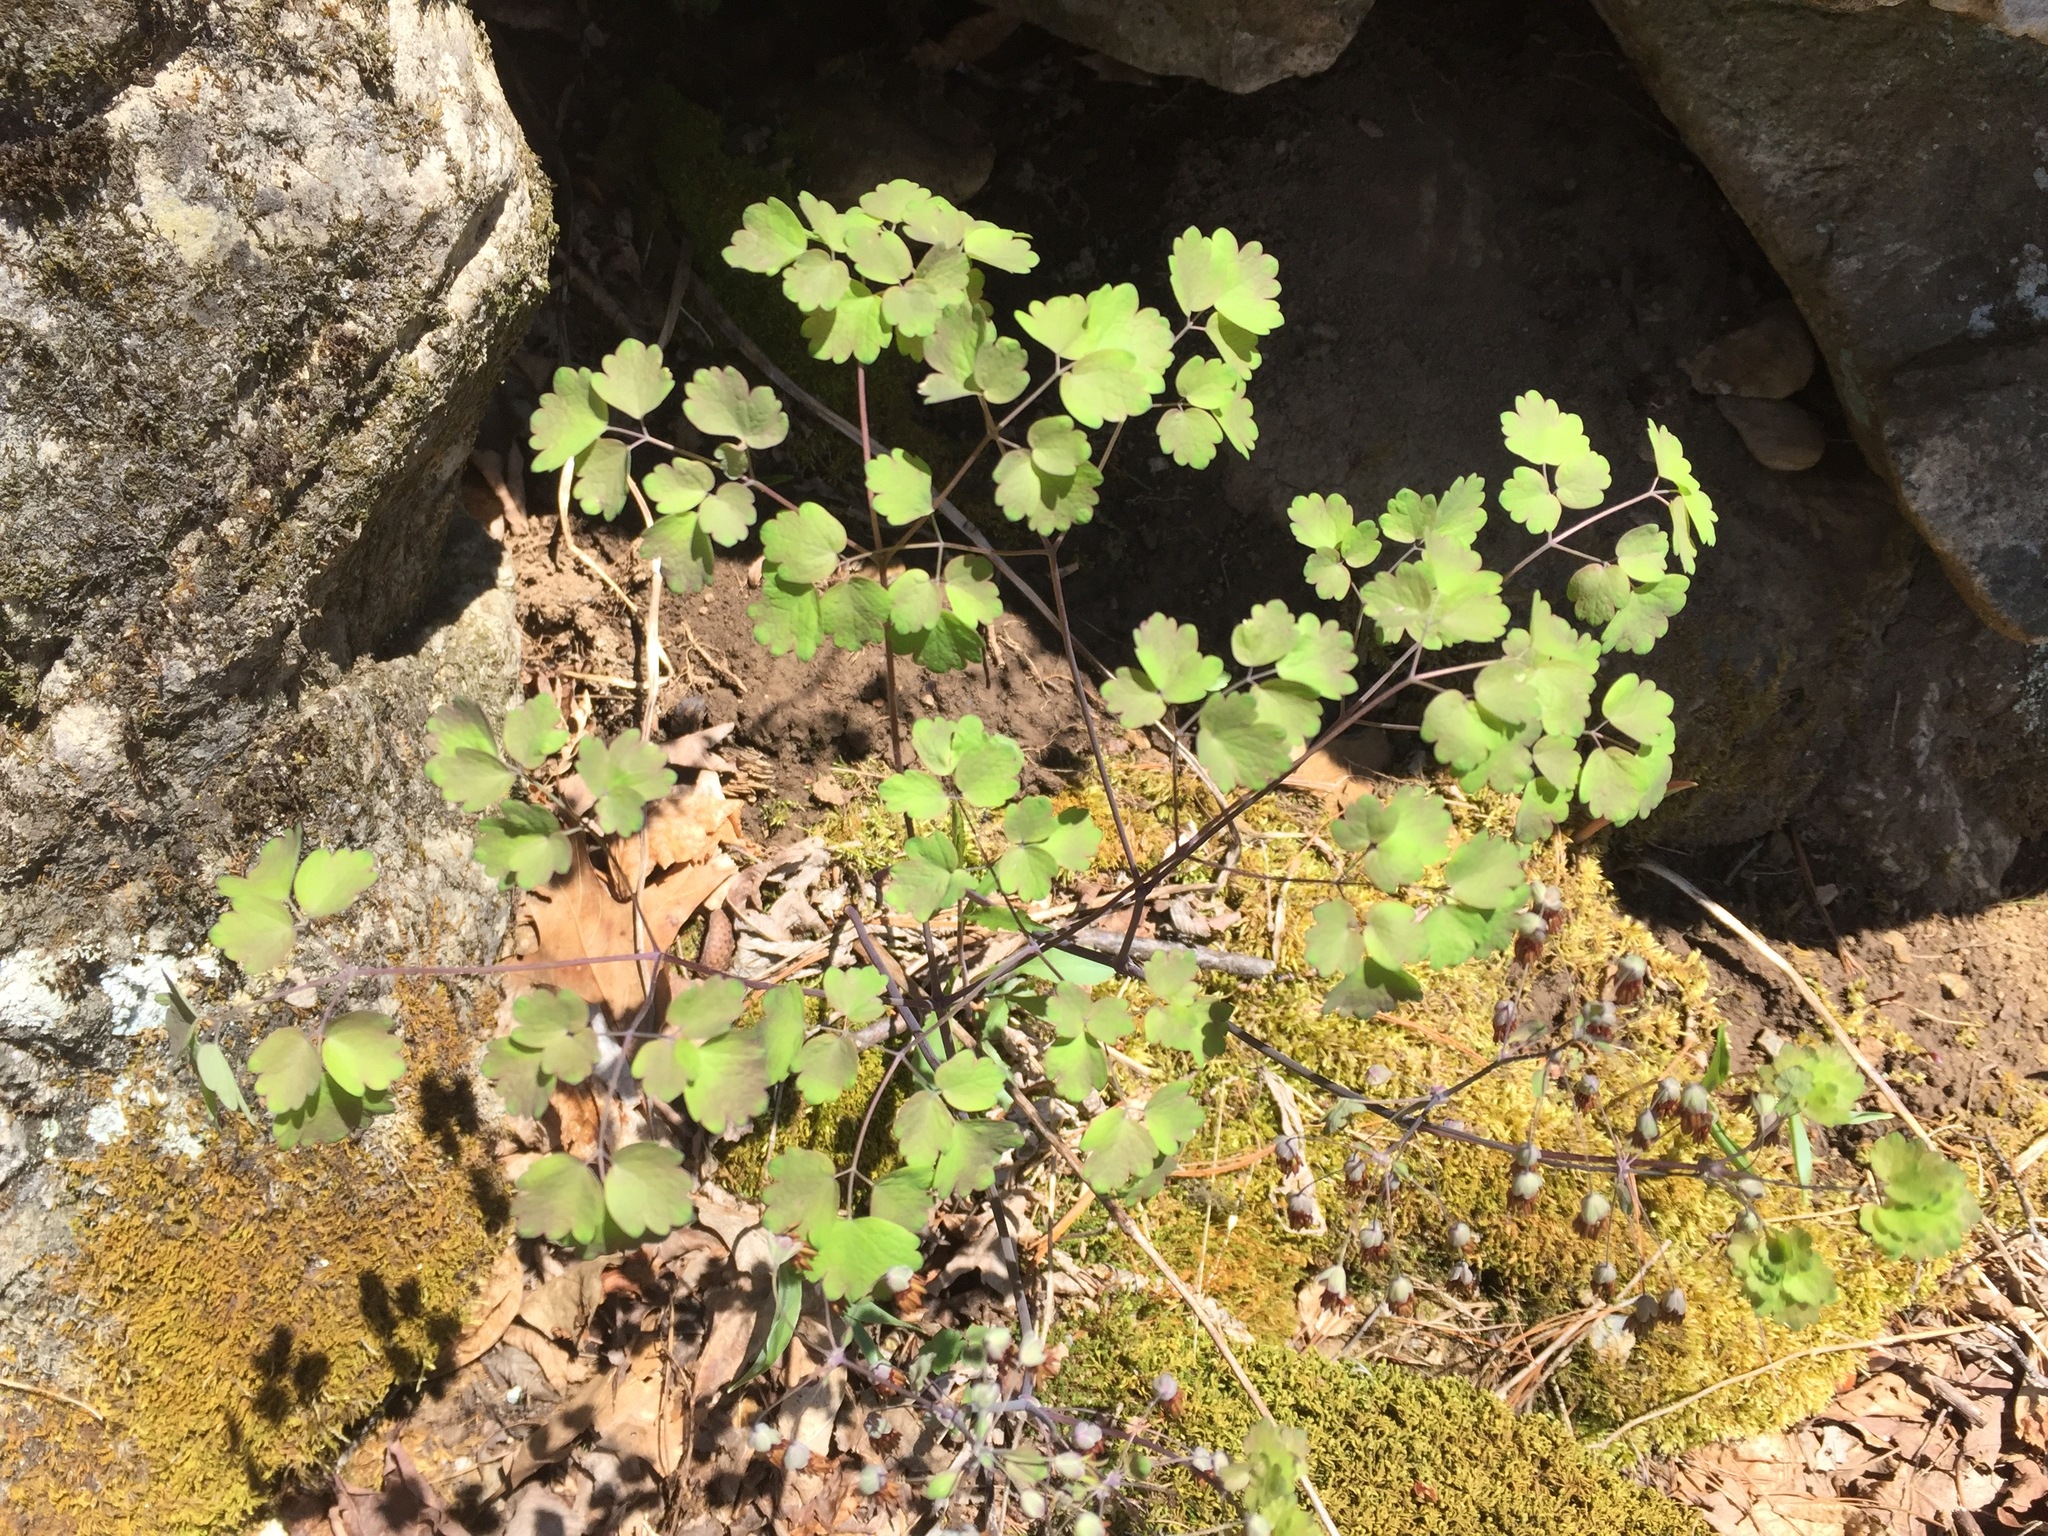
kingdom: Plantae
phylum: Tracheophyta
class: Magnoliopsida
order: Ranunculales
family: Ranunculaceae
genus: Thalictrum
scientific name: Thalictrum dioicum
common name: Early meadow-rue
